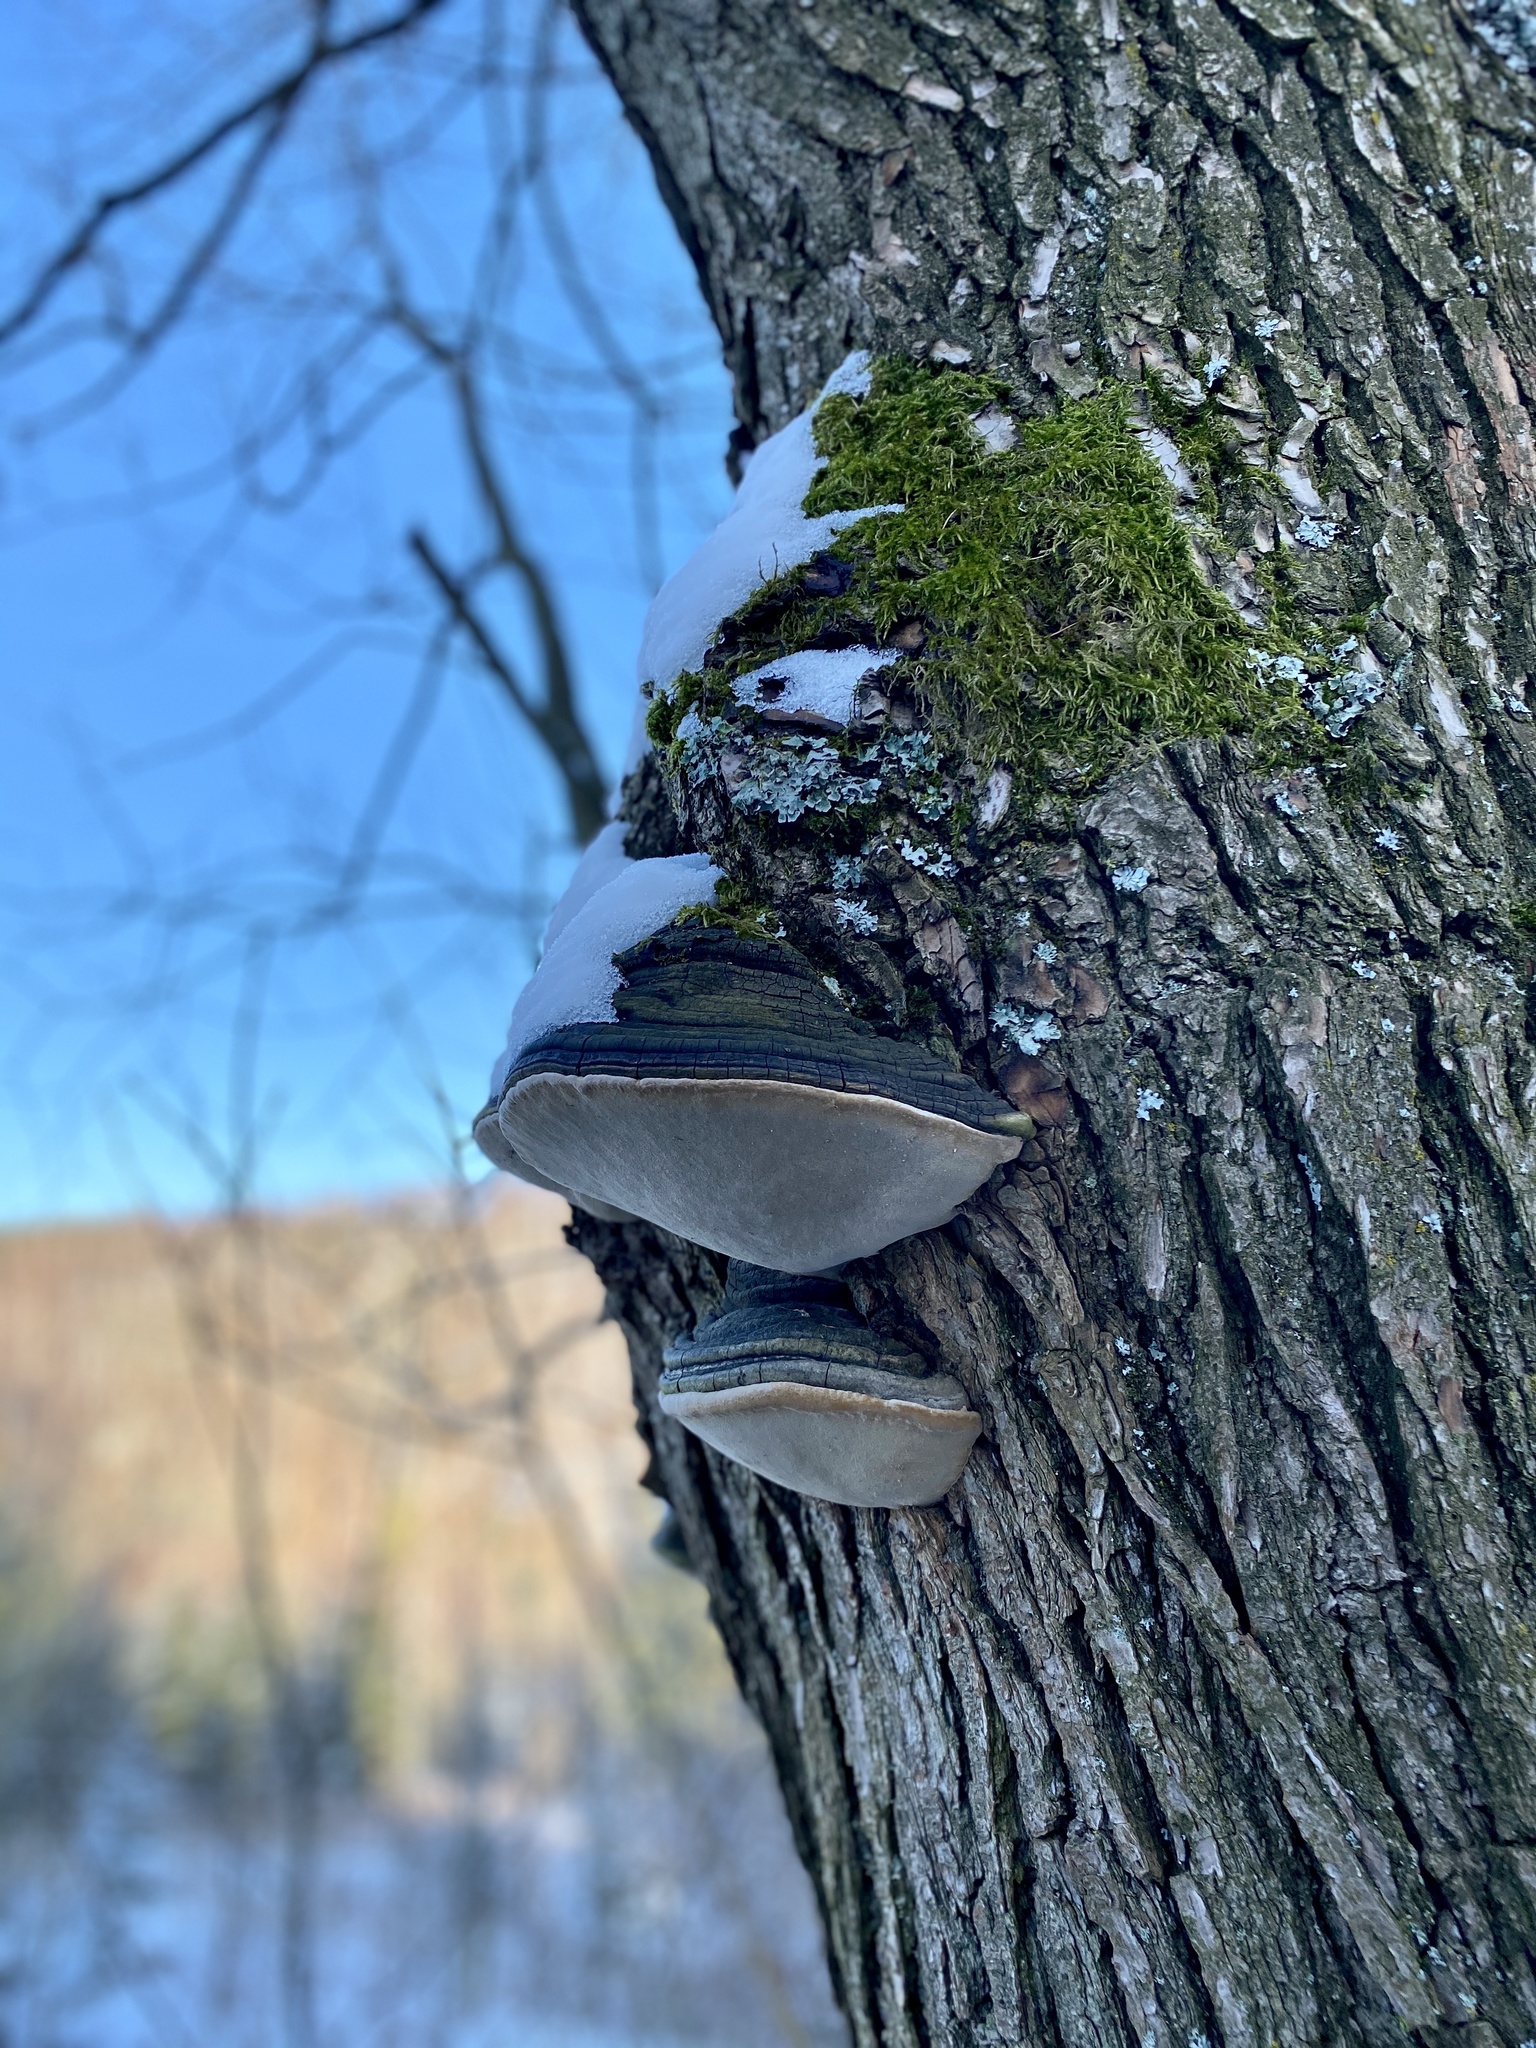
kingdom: Fungi
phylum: Basidiomycota
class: Agaricomycetes
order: Hymenochaetales
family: Hymenochaetaceae
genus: Phellinus
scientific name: Phellinus igniarius
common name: Willow bracket
